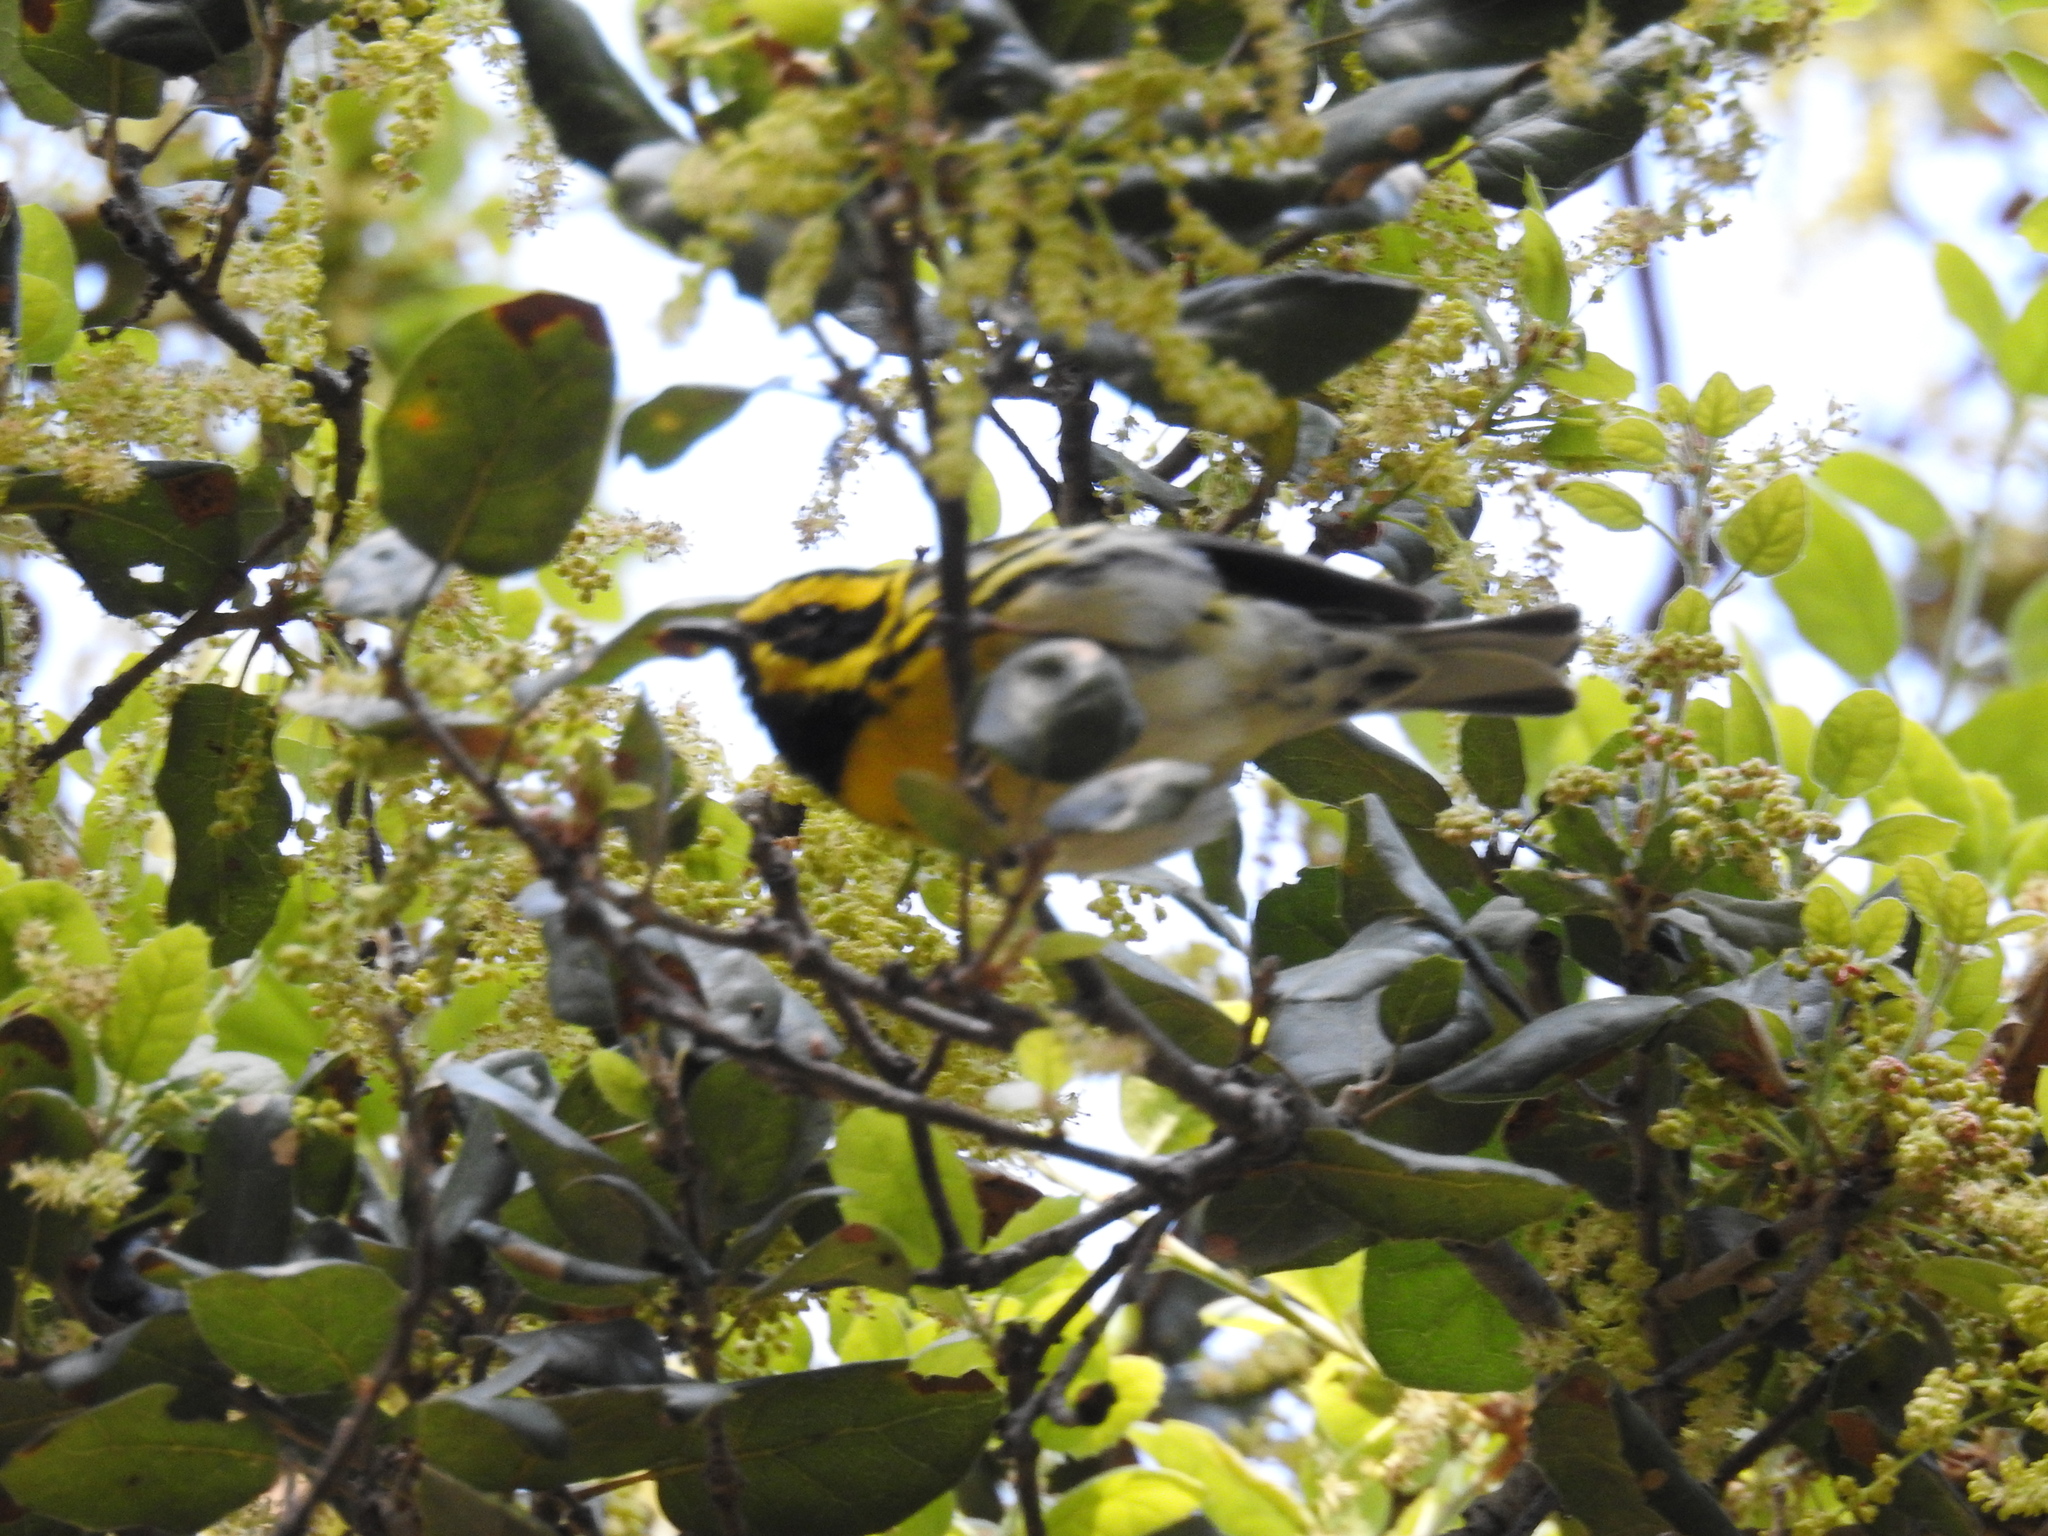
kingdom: Animalia
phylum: Chordata
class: Aves
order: Passeriformes
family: Parulidae
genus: Setophaga
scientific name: Setophaga townsendi
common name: Townsend's warbler
